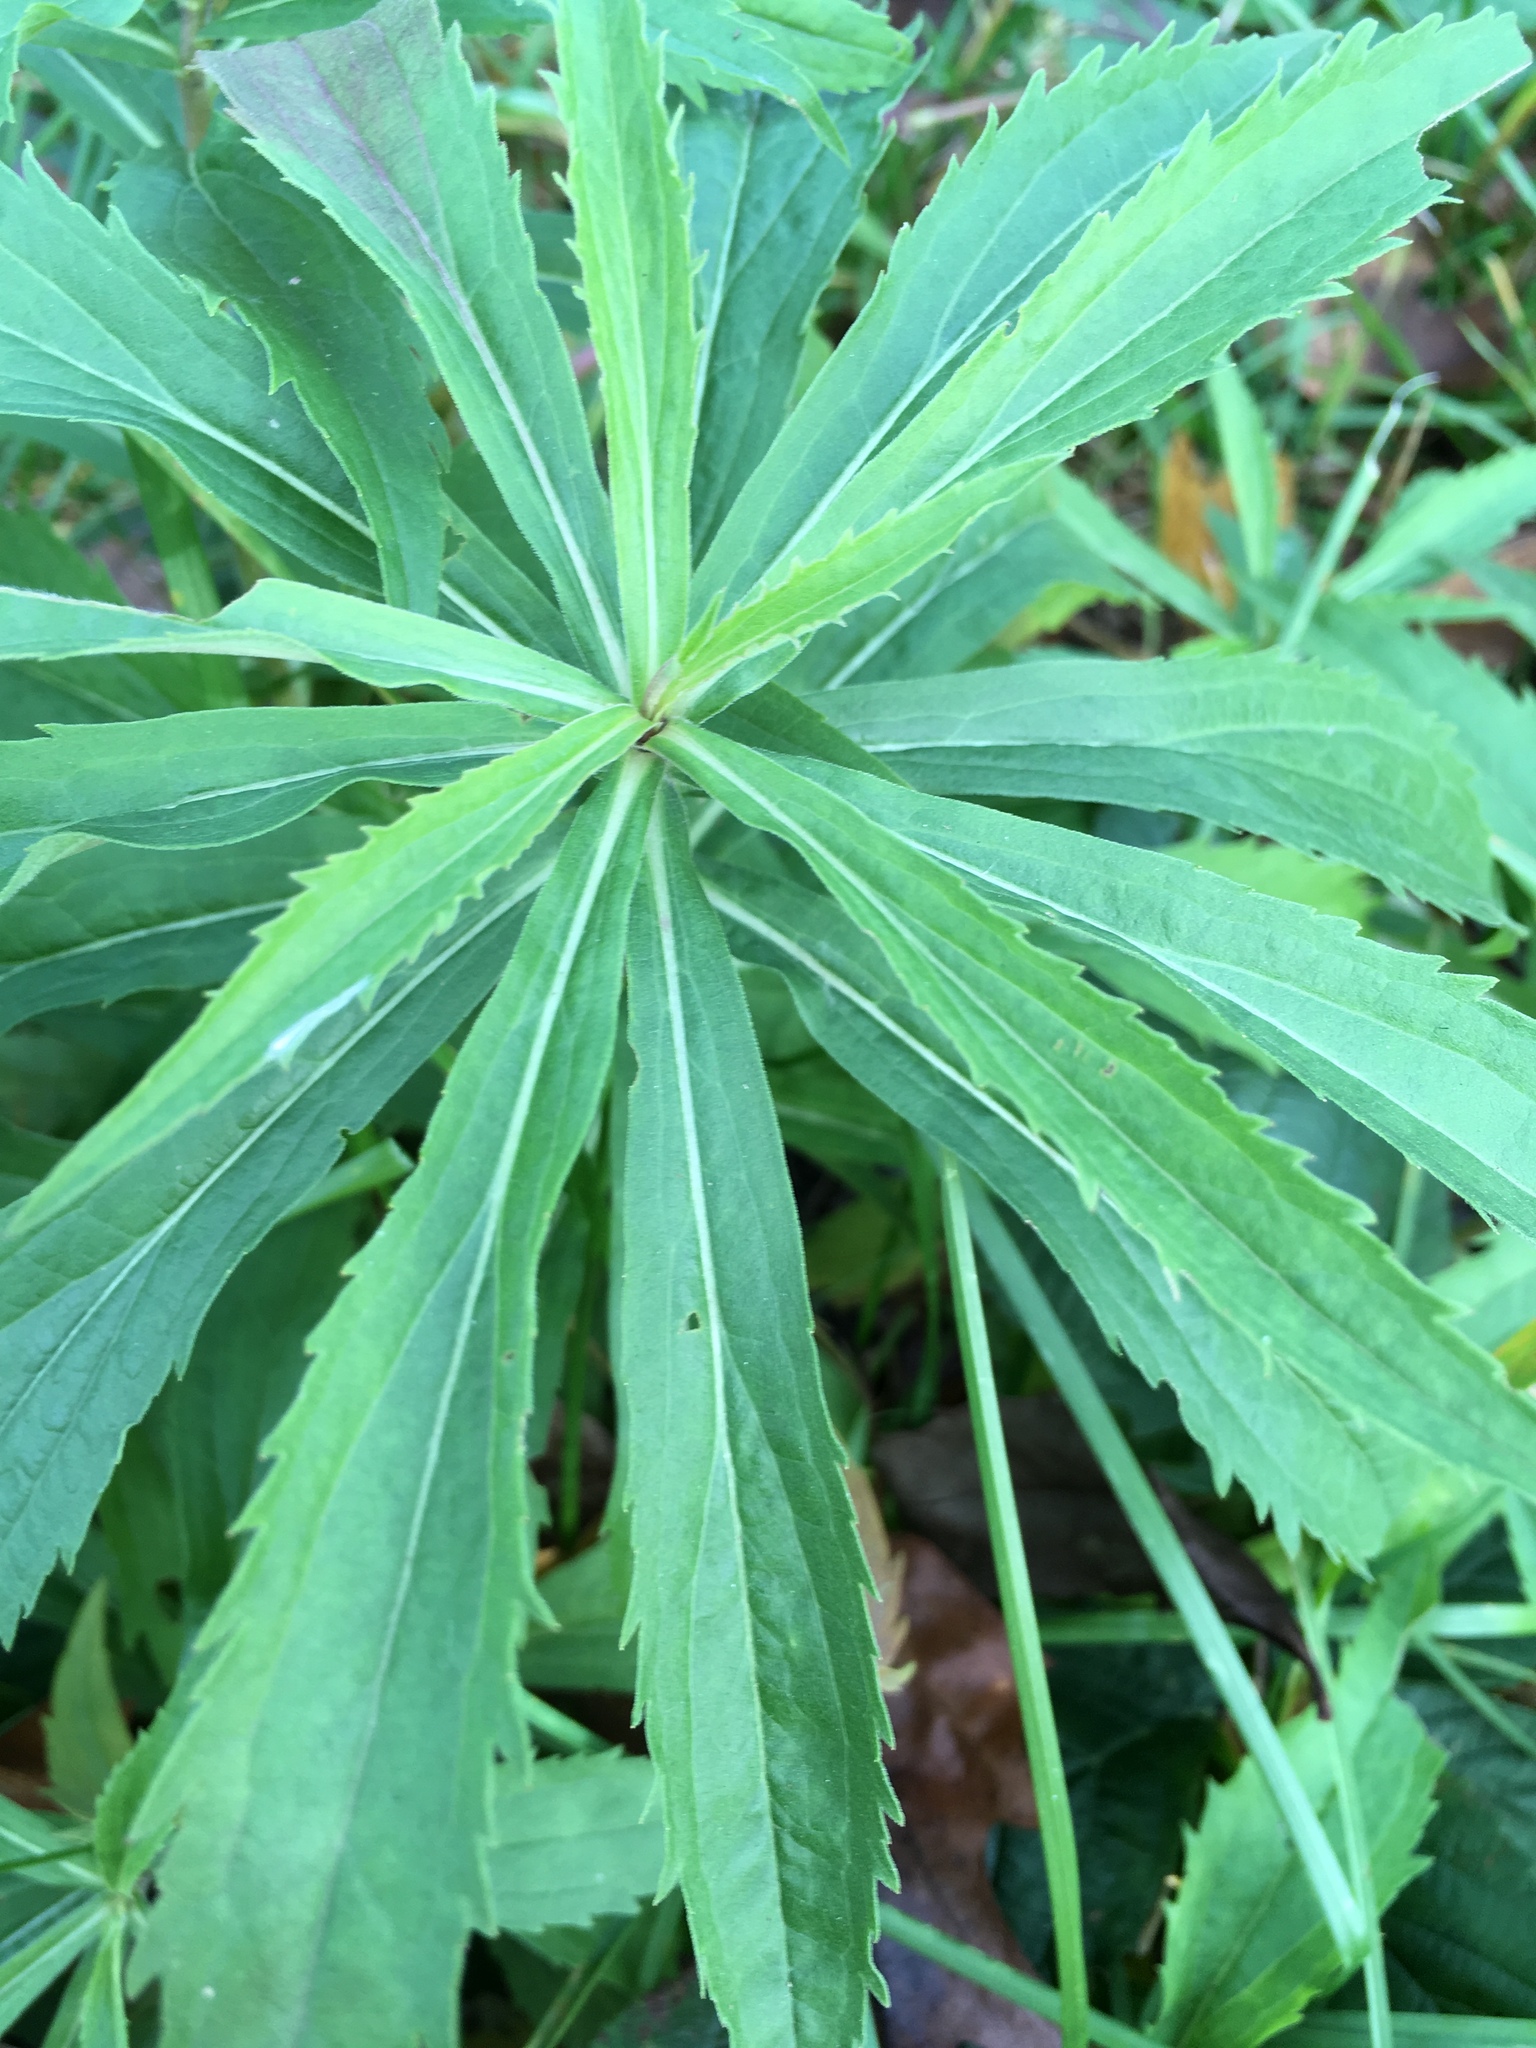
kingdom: Plantae
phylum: Tracheophyta
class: Magnoliopsida
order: Asterales
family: Asteraceae
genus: Solidago
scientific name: Solidago canadensis
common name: Canada goldenrod
